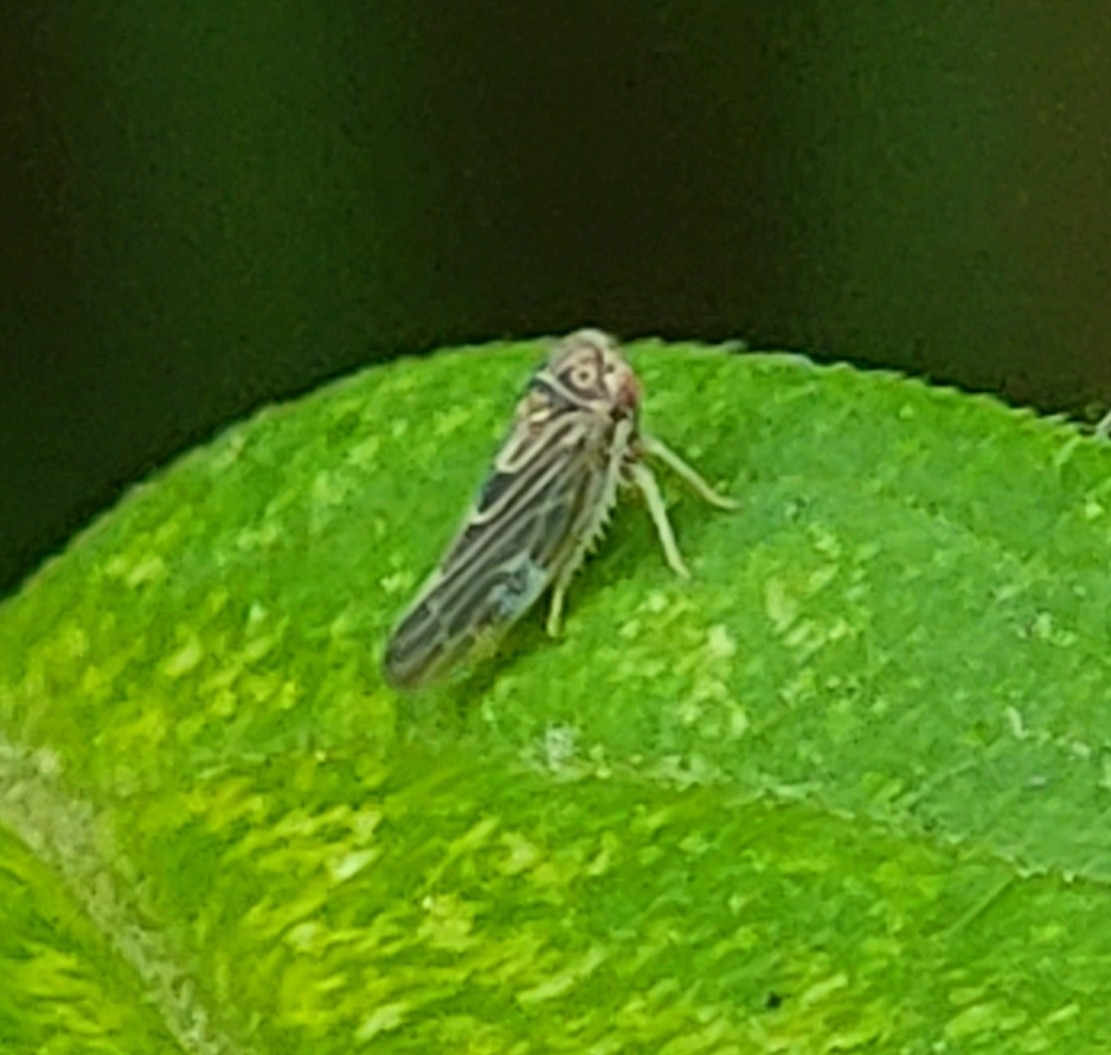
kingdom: Animalia
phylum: Arthropoda
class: Insecta
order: Hemiptera
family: Cicadellidae
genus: Agalliopsis
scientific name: Agalliopsis novella
